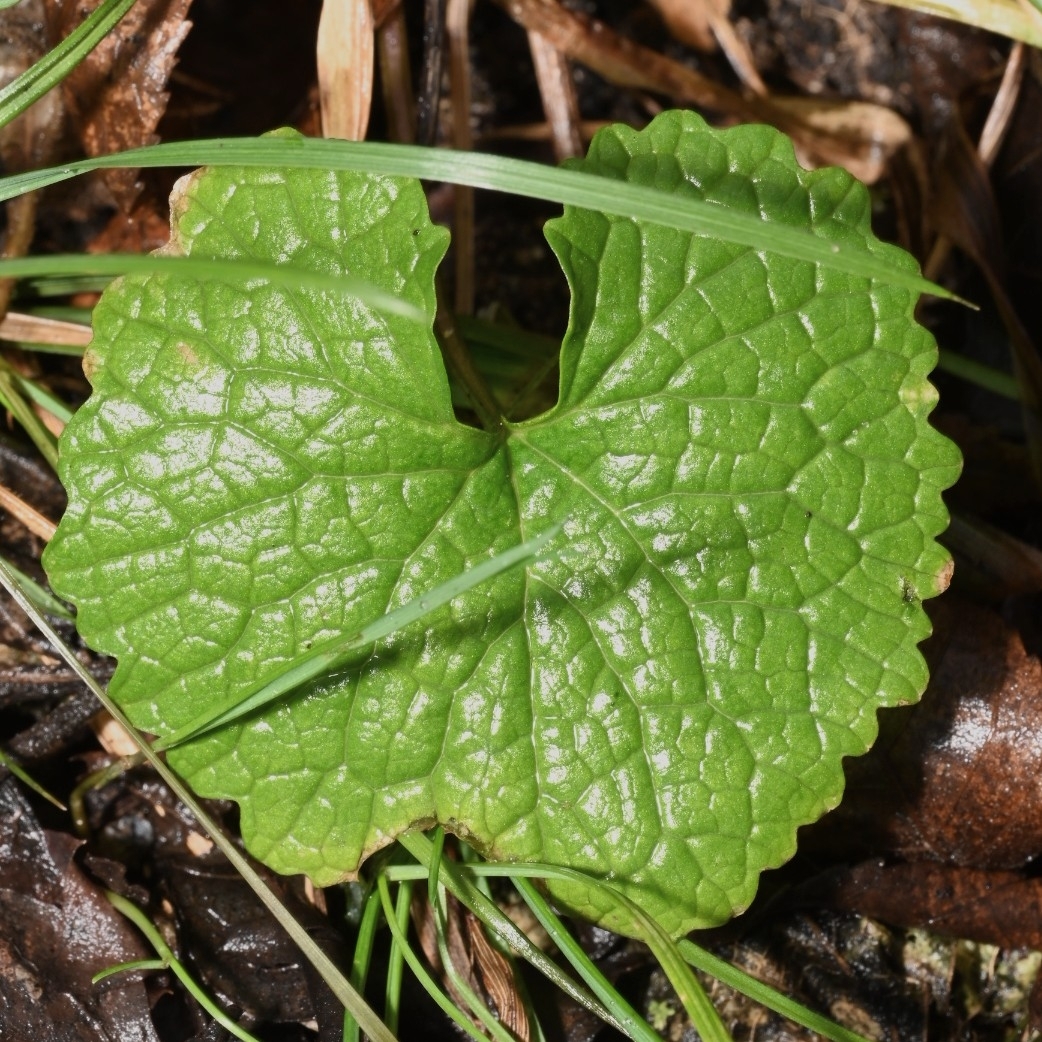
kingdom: Plantae
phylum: Tracheophyta
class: Magnoliopsida
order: Brassicales
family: Brassicaceae
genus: Alliaria
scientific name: Alliaria petiolata
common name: Garlic mustard
